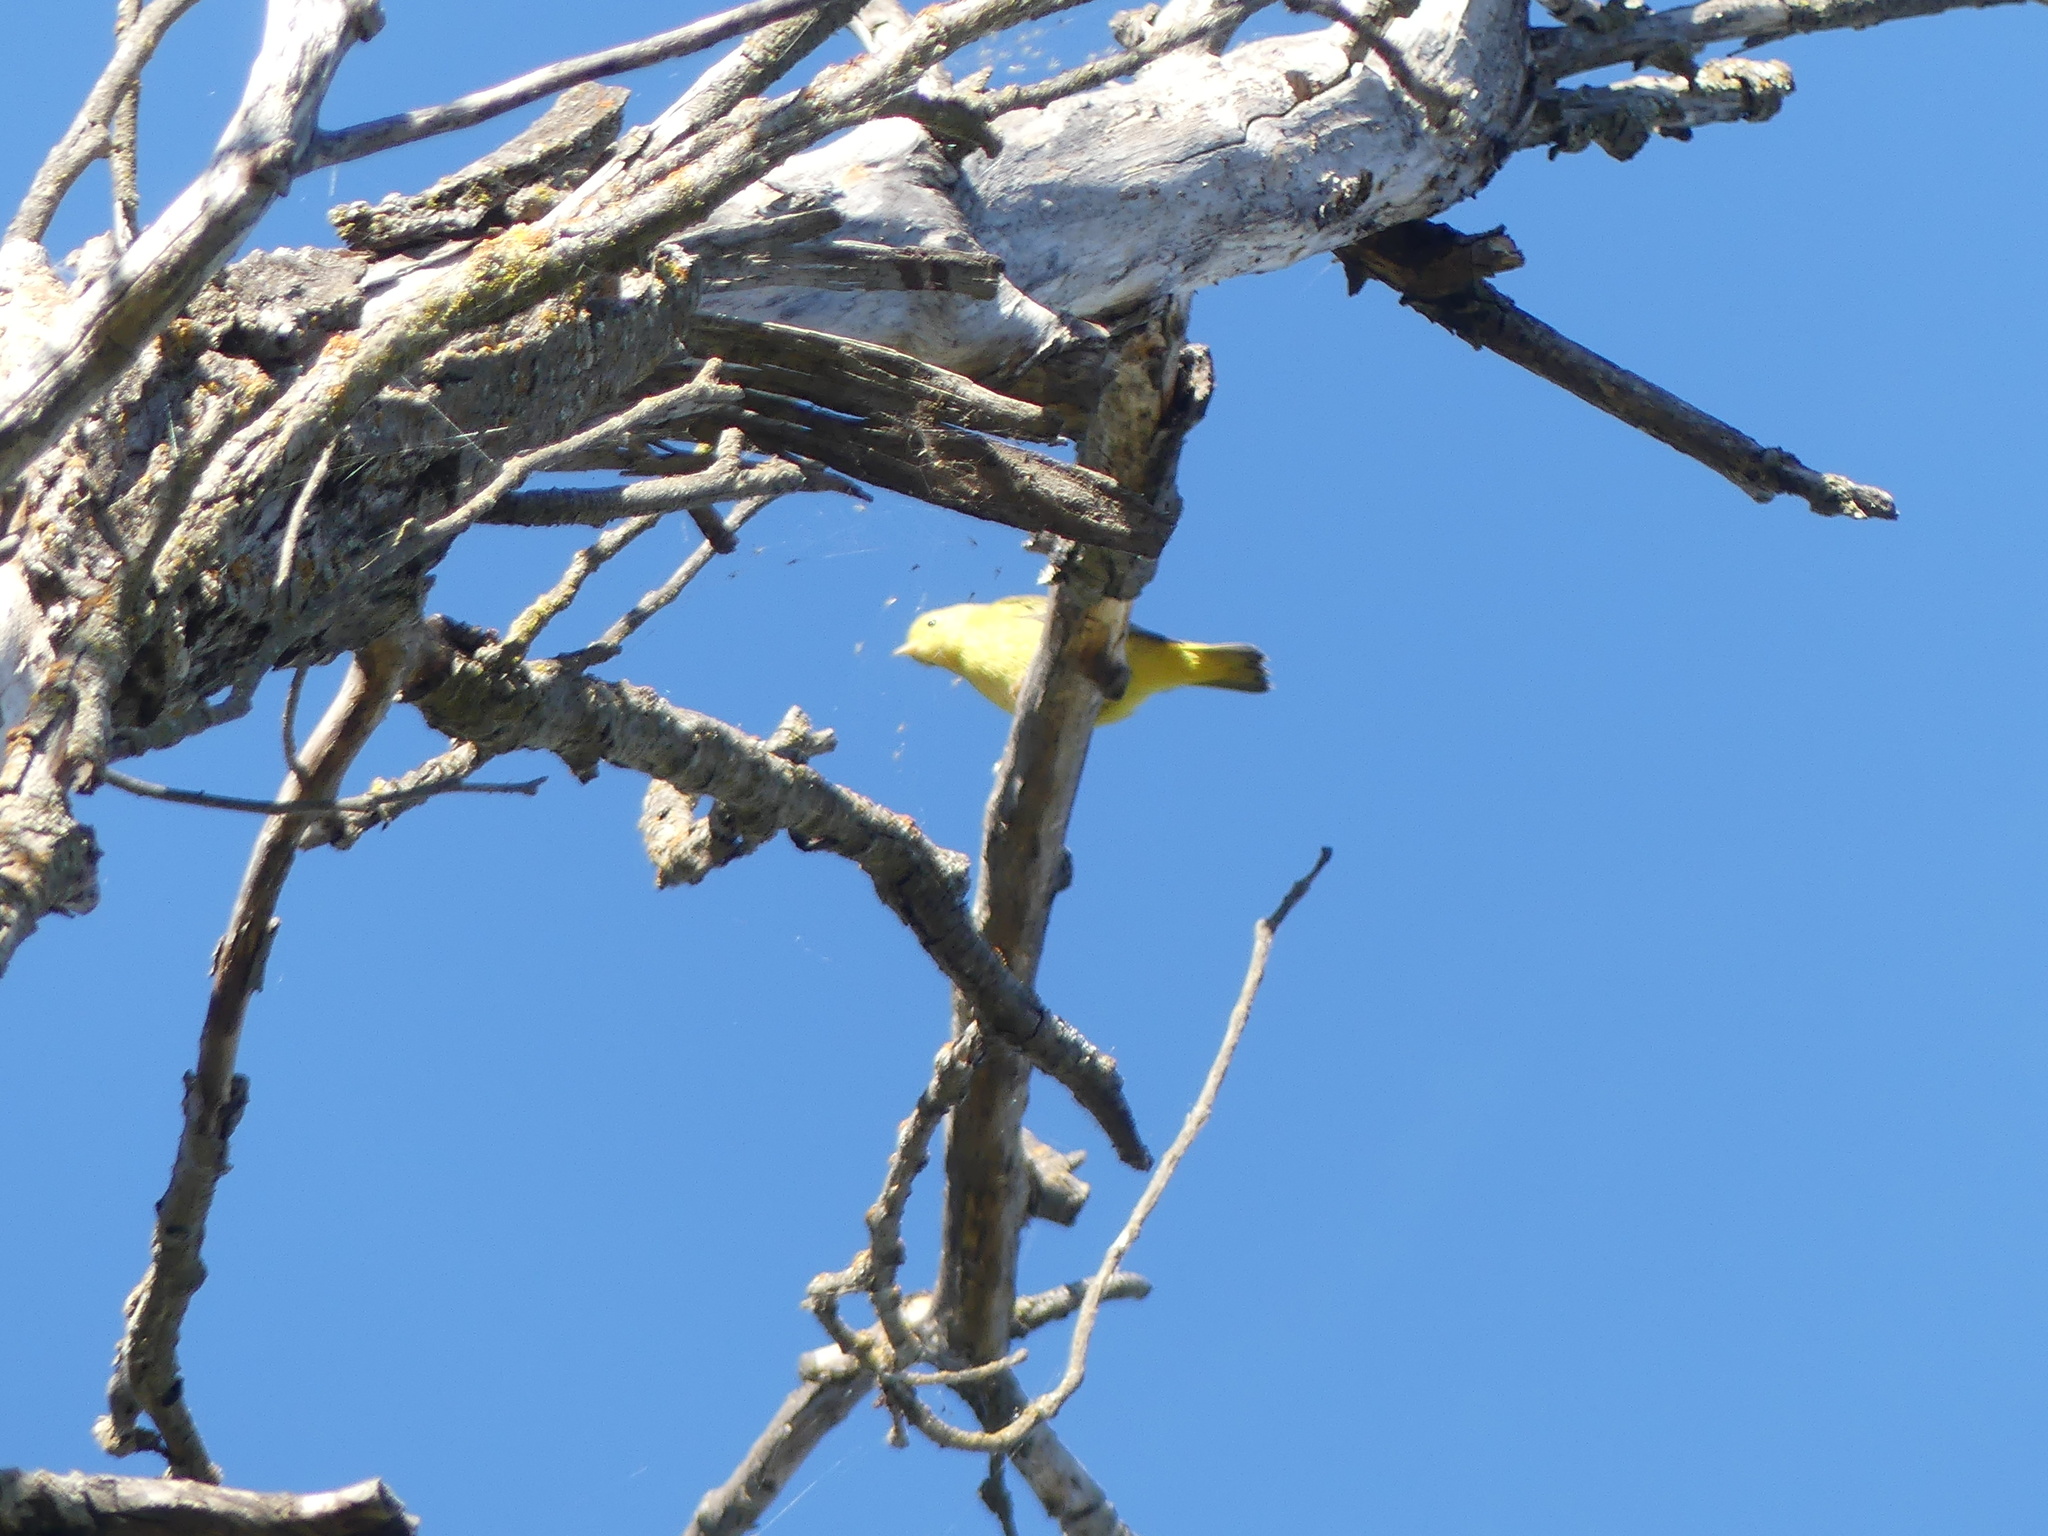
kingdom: Animalia
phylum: Chordata
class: Aves
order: Passeriformes
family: Parulidae
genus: Setophaga
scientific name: Setophaga petechia
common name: Yellow warbler
